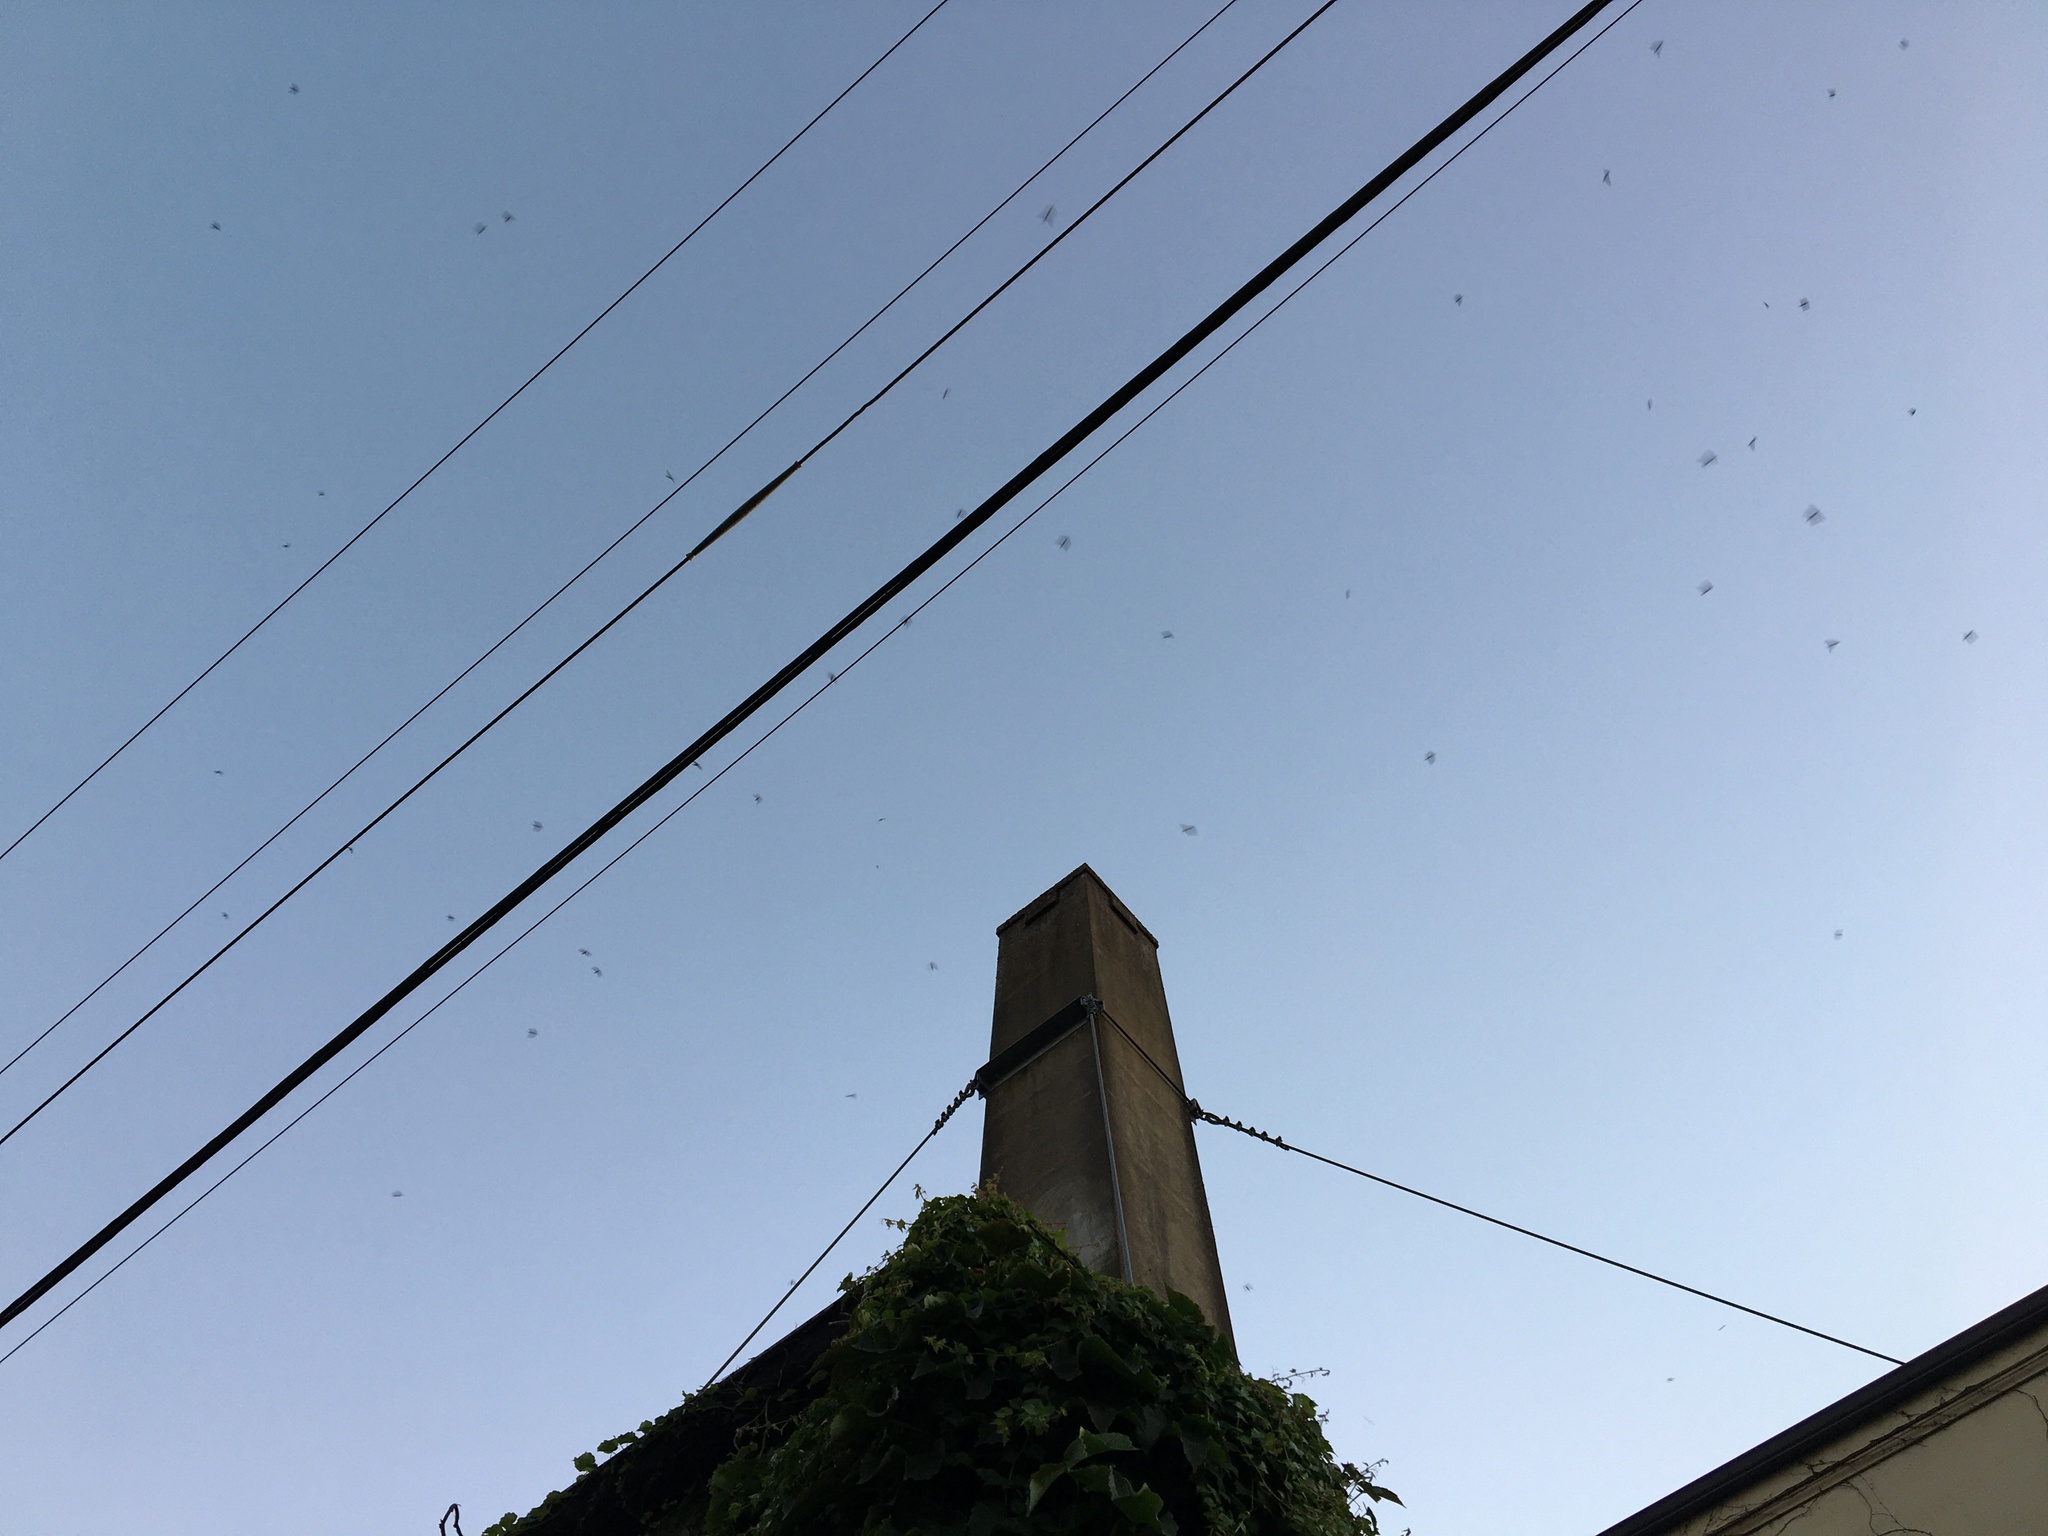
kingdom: Animalia
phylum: Chordata
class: Aves
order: Apodiformes
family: Apodidae
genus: Chaetura
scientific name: Chaetura vauxi
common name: Vaux's swift
